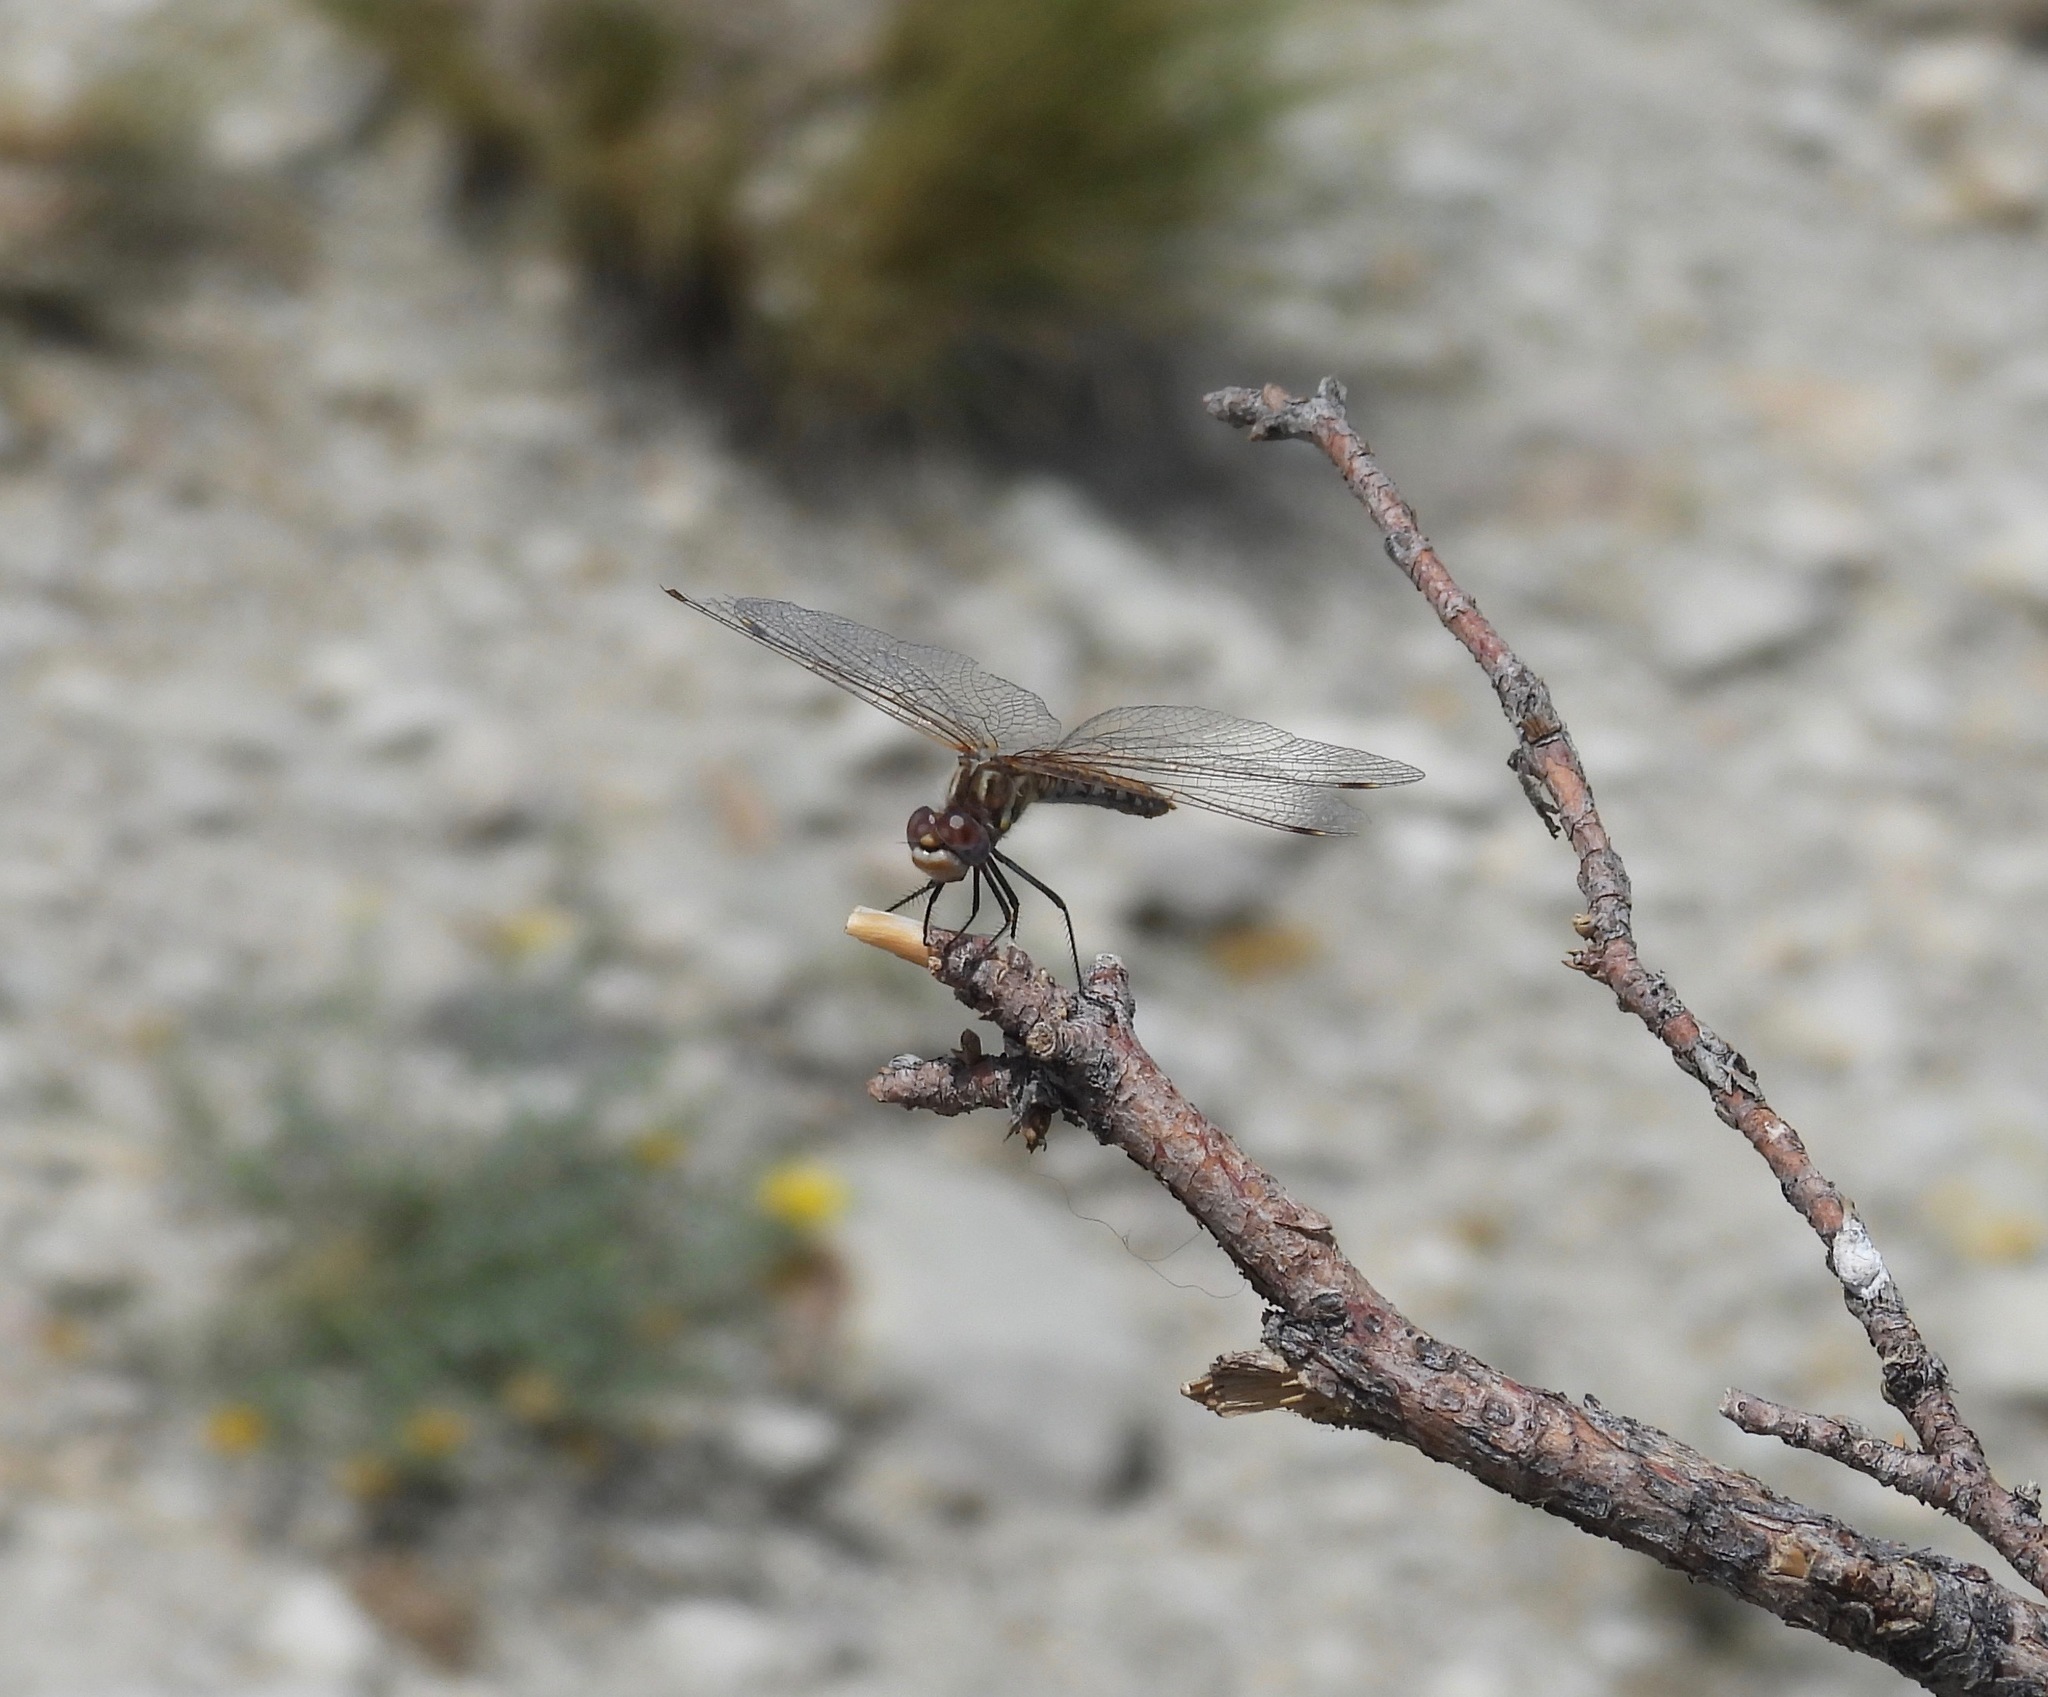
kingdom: Animalia
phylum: Arthropoda
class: Insecta
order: Odonata
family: Libellulidae
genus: Sympetrum
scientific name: Sympetrum corruptum
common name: Variegated meadowhawk
